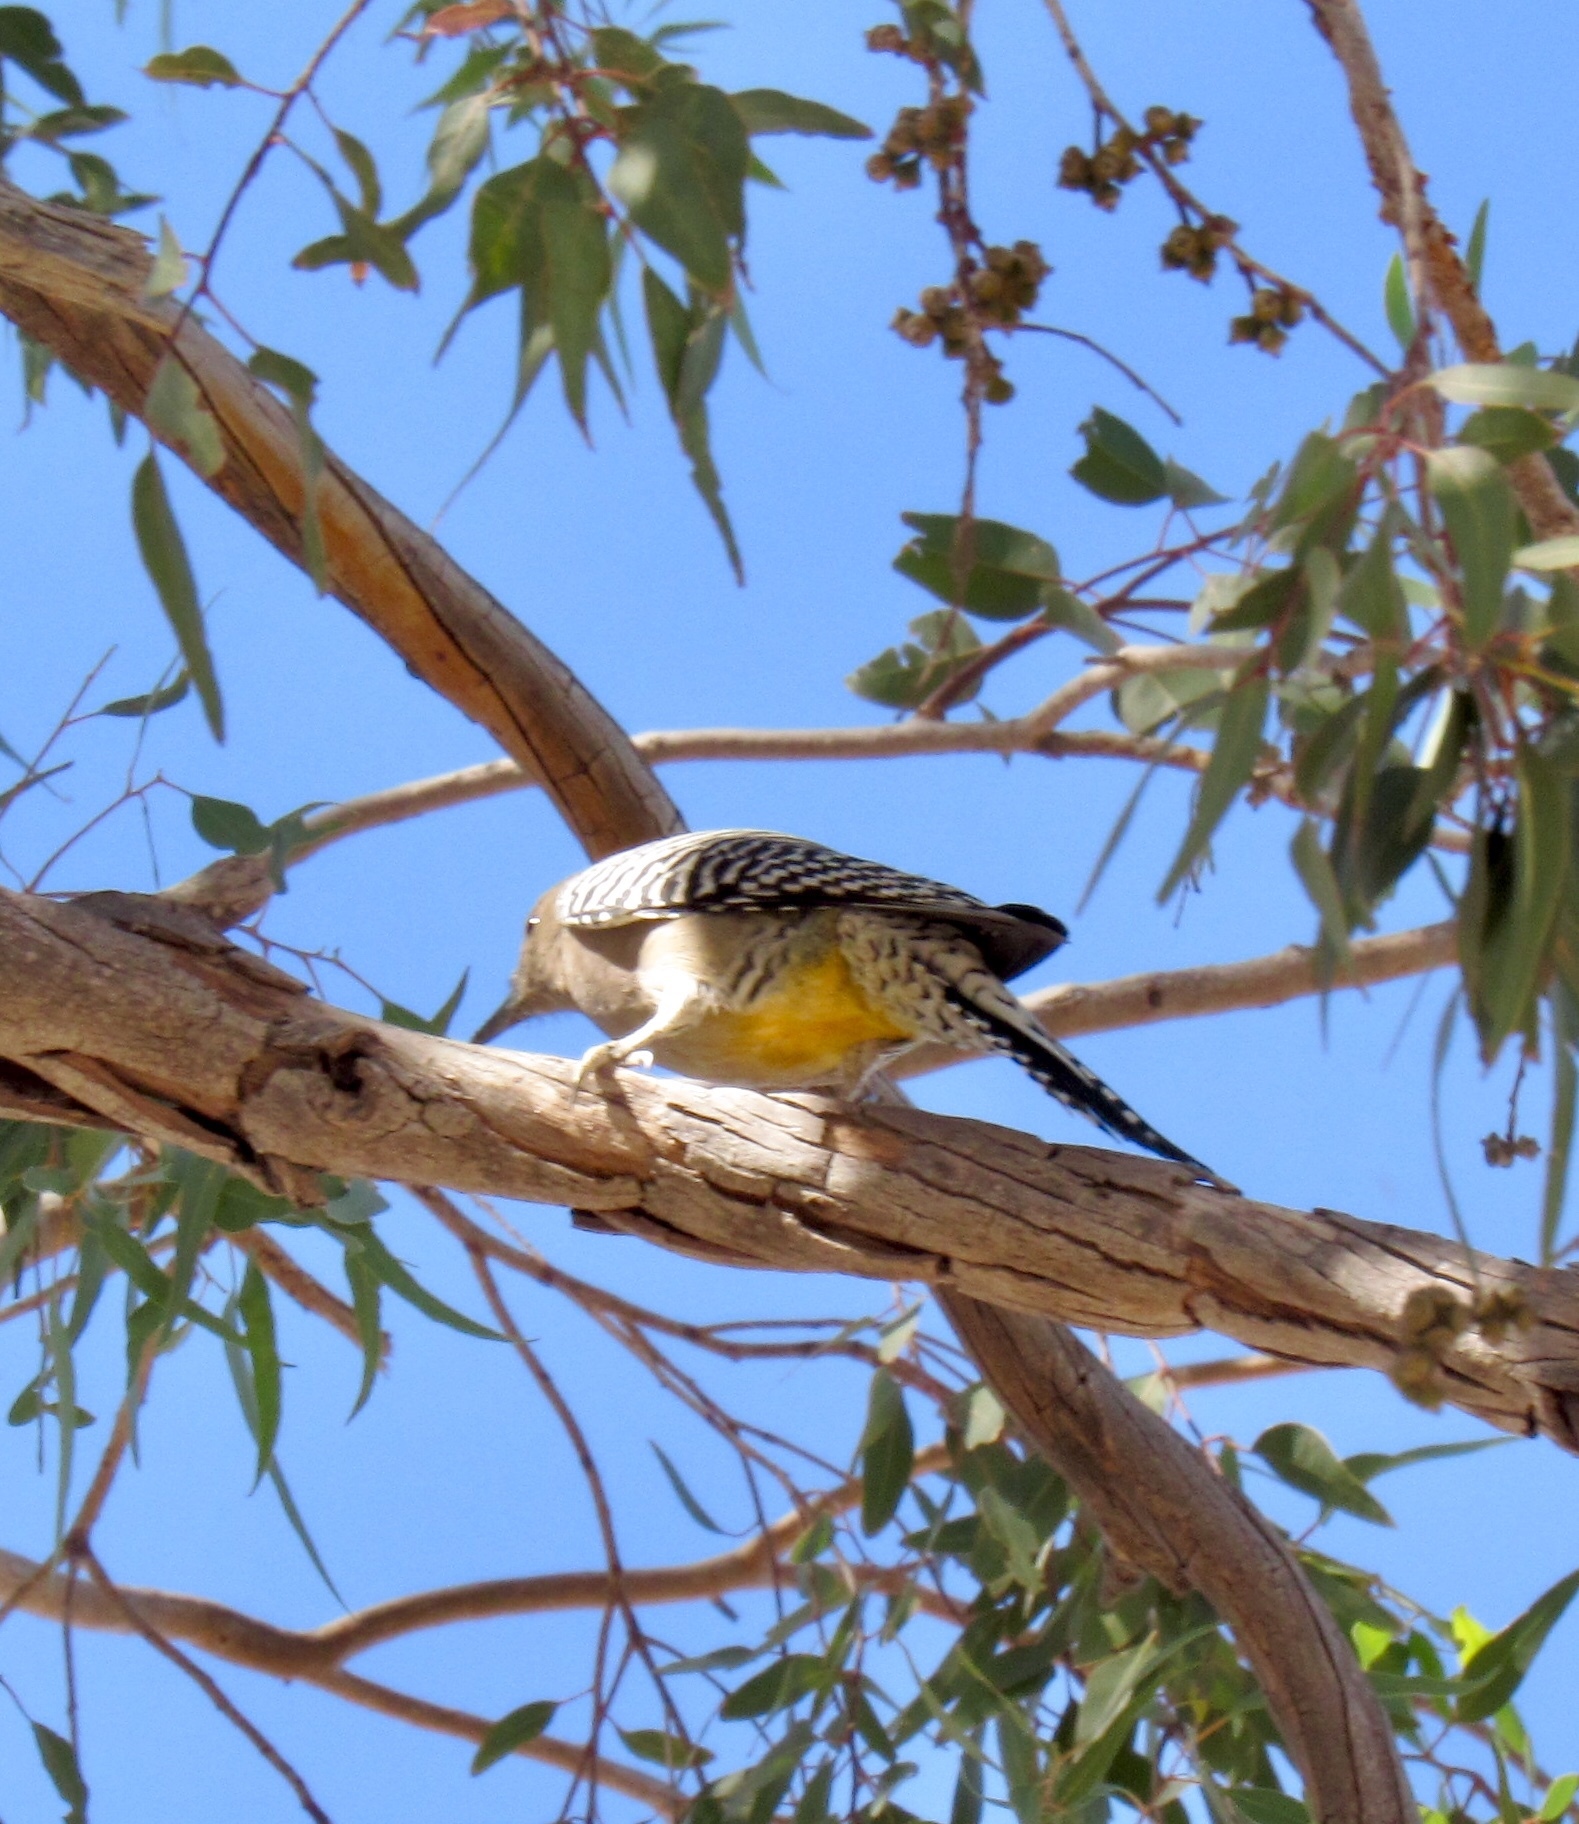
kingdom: Animalia
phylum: Chordata
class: Aves
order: Piciformes
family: Picidae
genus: Melanerpes
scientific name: Melanerpes uropygialis
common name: Gila woodpecker
